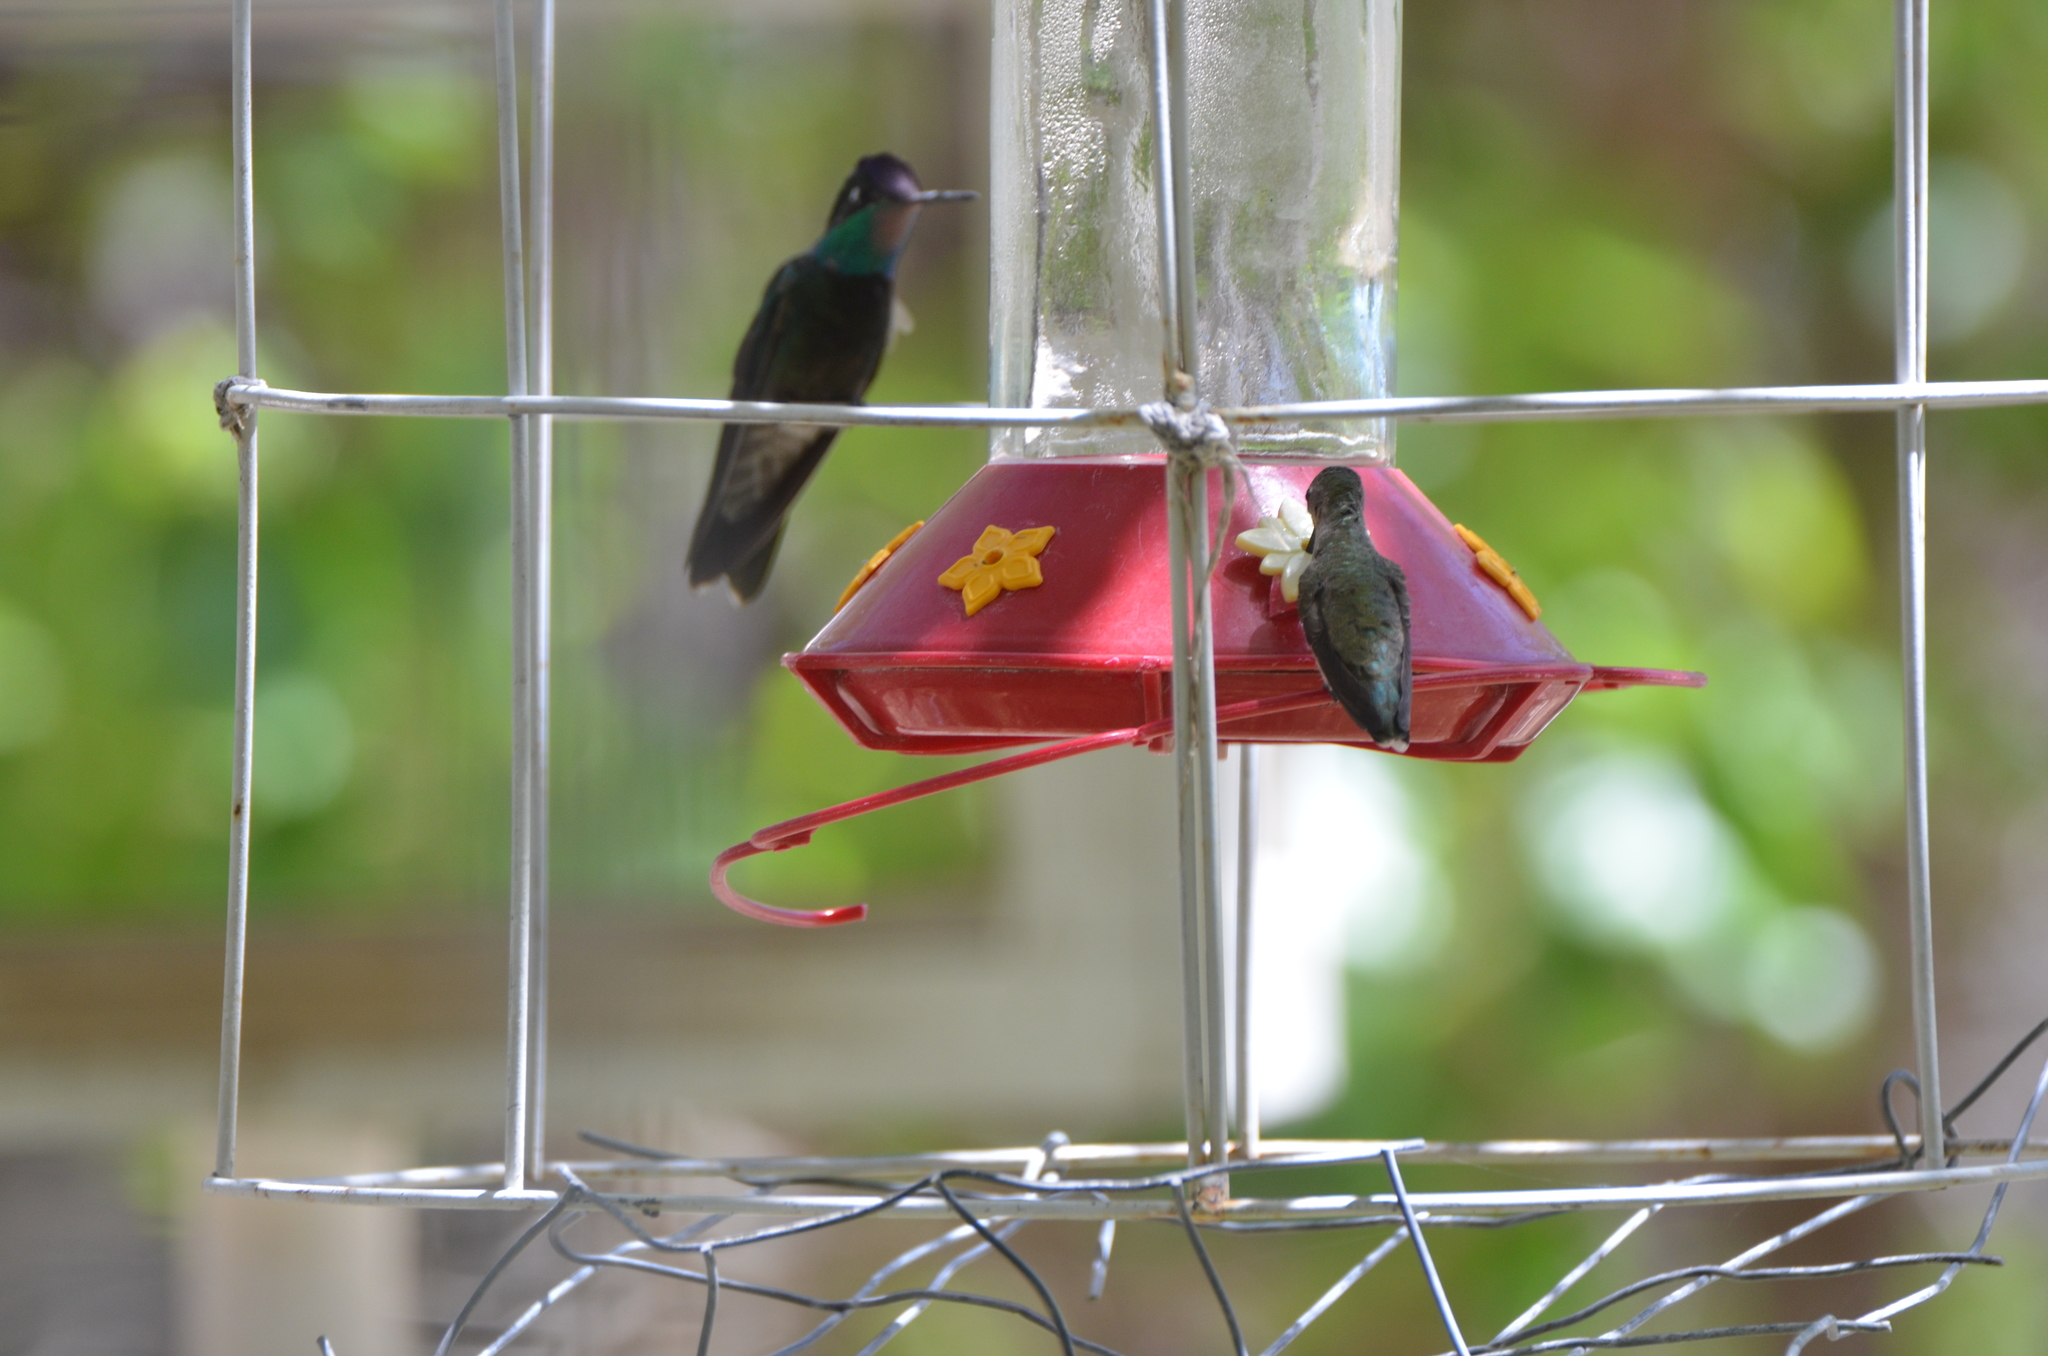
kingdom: Animalia
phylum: Chordata
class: Aves
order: Apodiformes
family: Trochilidae
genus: Eugenes
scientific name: Eugenes fulgens
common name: Magnificent hummingbird
